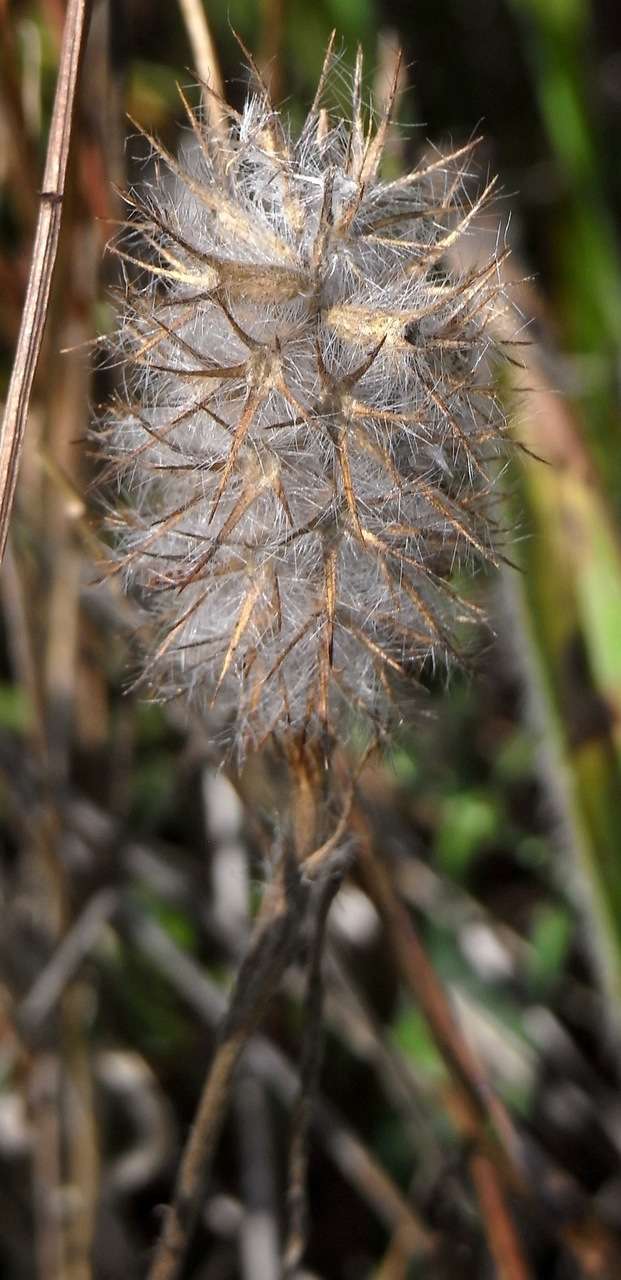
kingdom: Plantae
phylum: Tracheophyta
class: Magnoliopsida
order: Fabales
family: Fabaceae
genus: Trifolium
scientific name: Trifolium angustifolium
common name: Narrow clover
